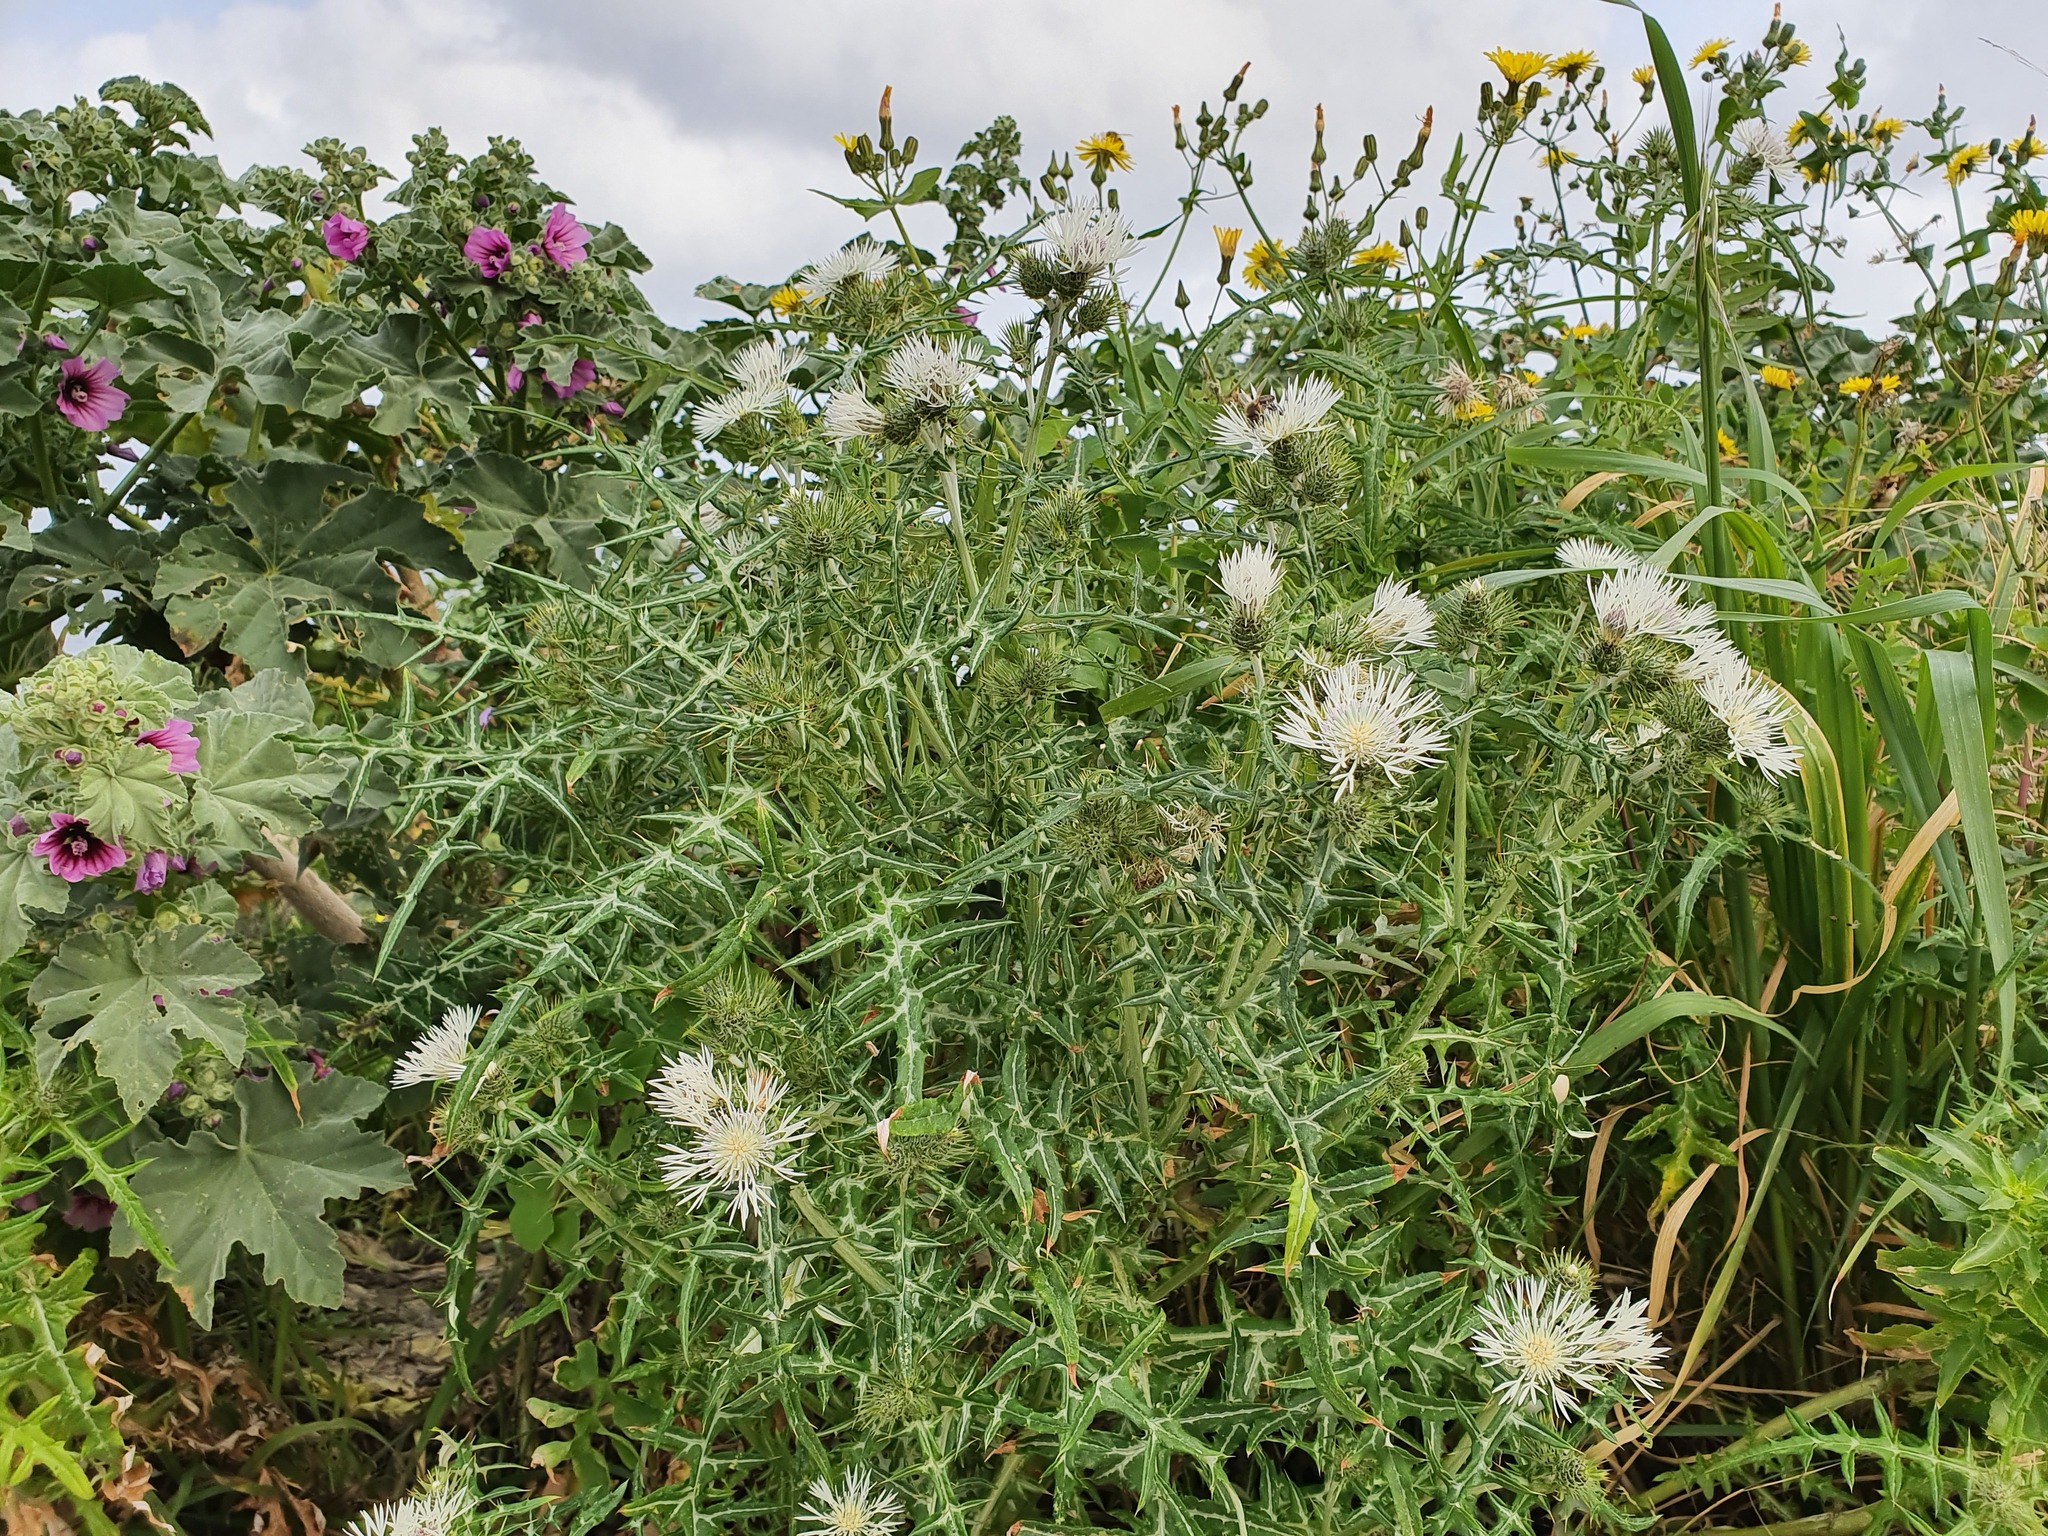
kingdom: Plantae
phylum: Tracheophyta
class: Magnoliopsida
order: Asterales
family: Asteraceae
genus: Galactites
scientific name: Galactites tomentosa
